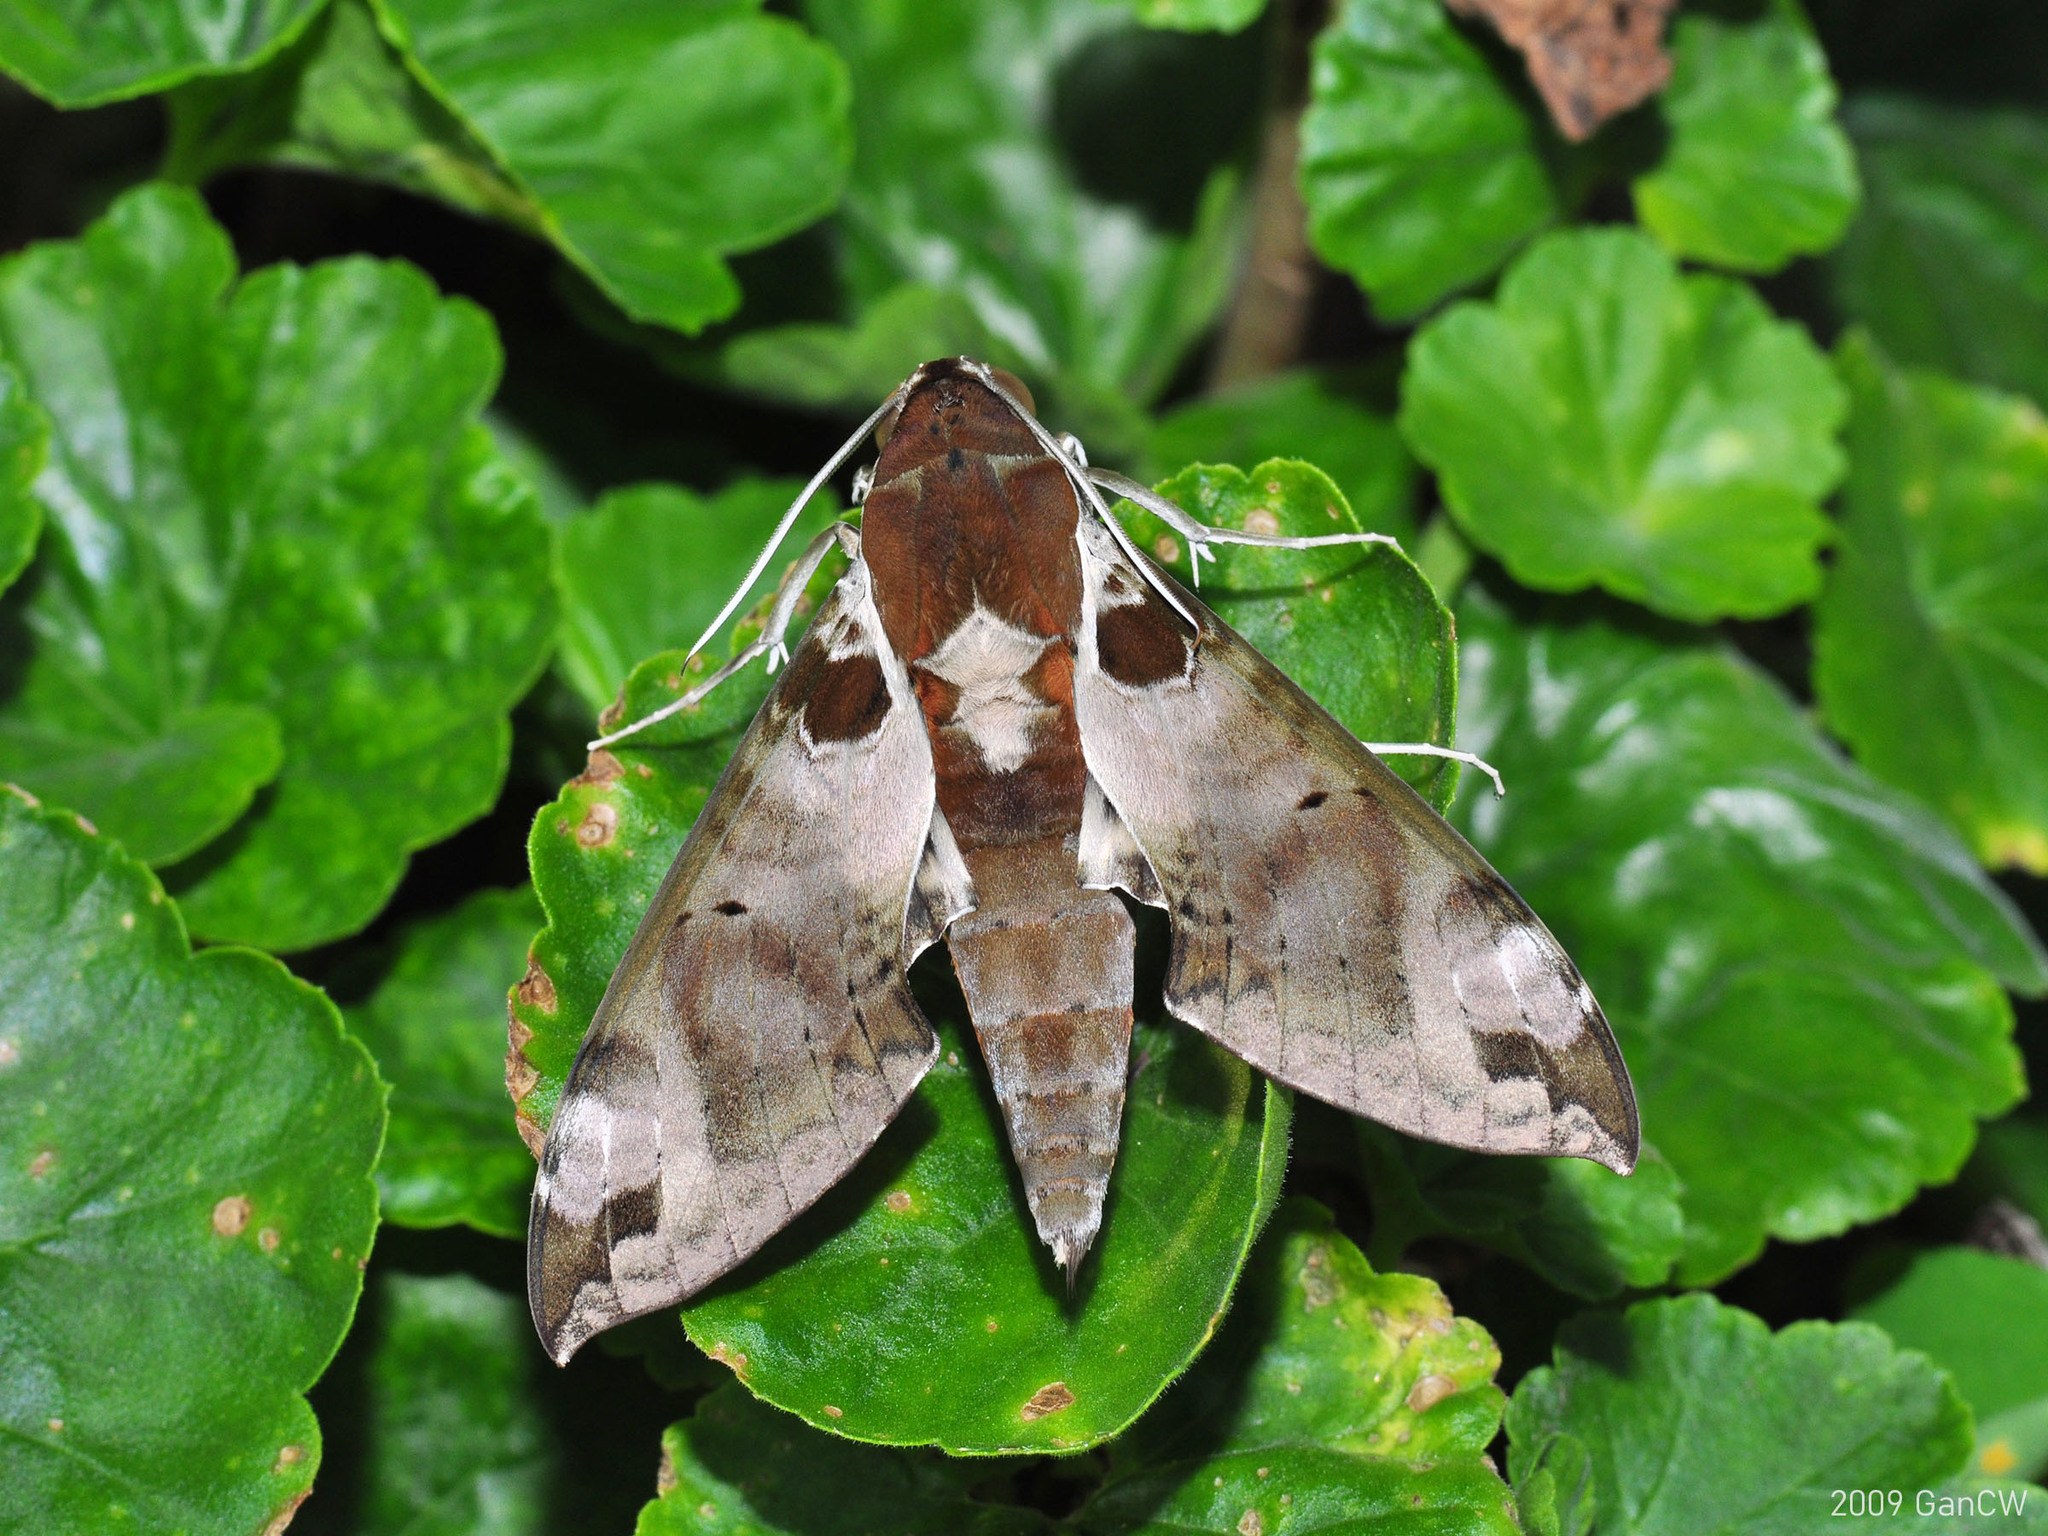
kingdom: Animalia
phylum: Arthropoda
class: Insecta
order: Lepidoptera
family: Sphingidae
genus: Cechenena
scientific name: Cechenena helops
